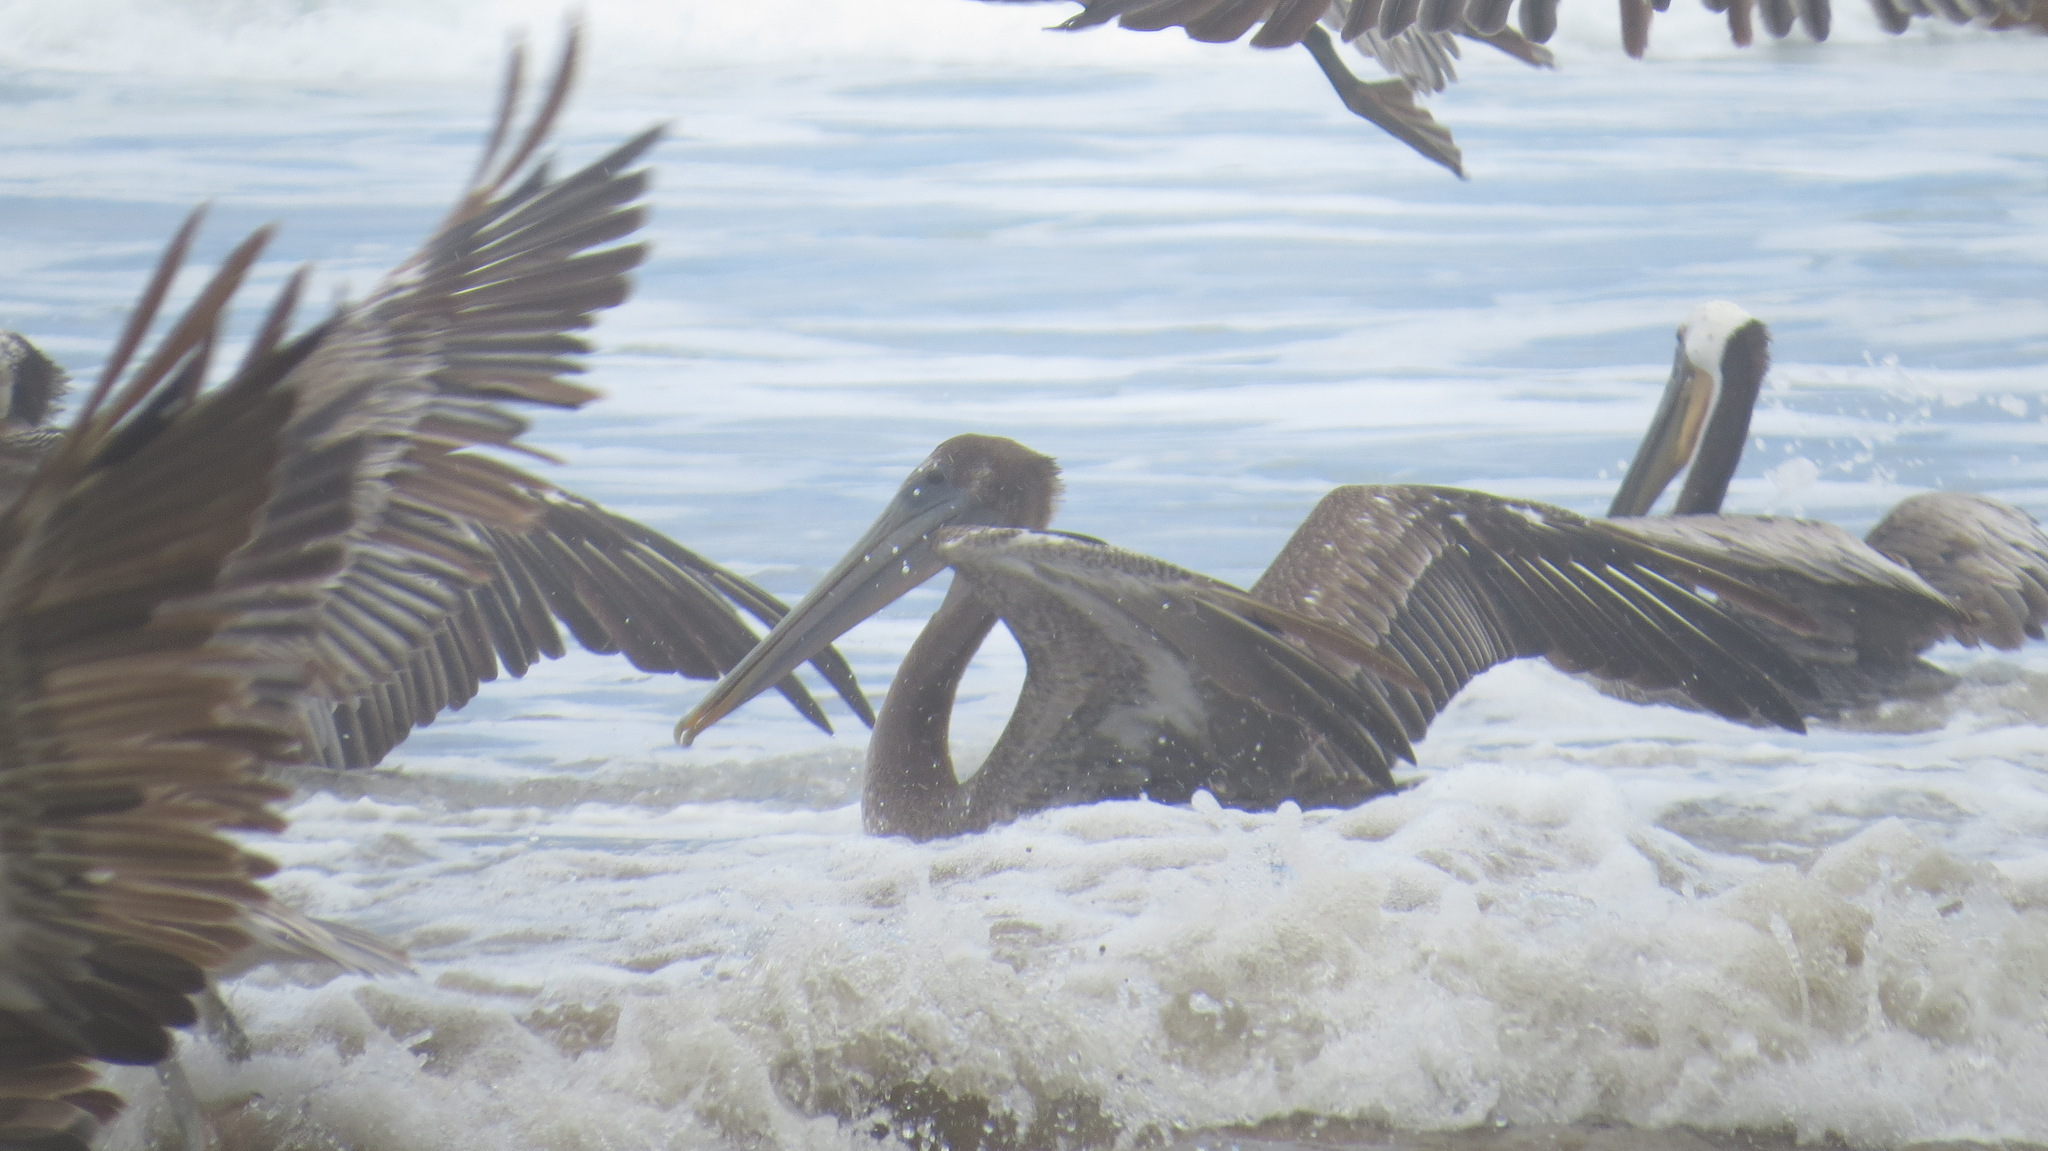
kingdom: Animalia
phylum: Chordata
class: Aves
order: Pelecaniformes
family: Pelecanidae
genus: Pelecanus
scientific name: Pelecanus occidentalis
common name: Brown pelican
